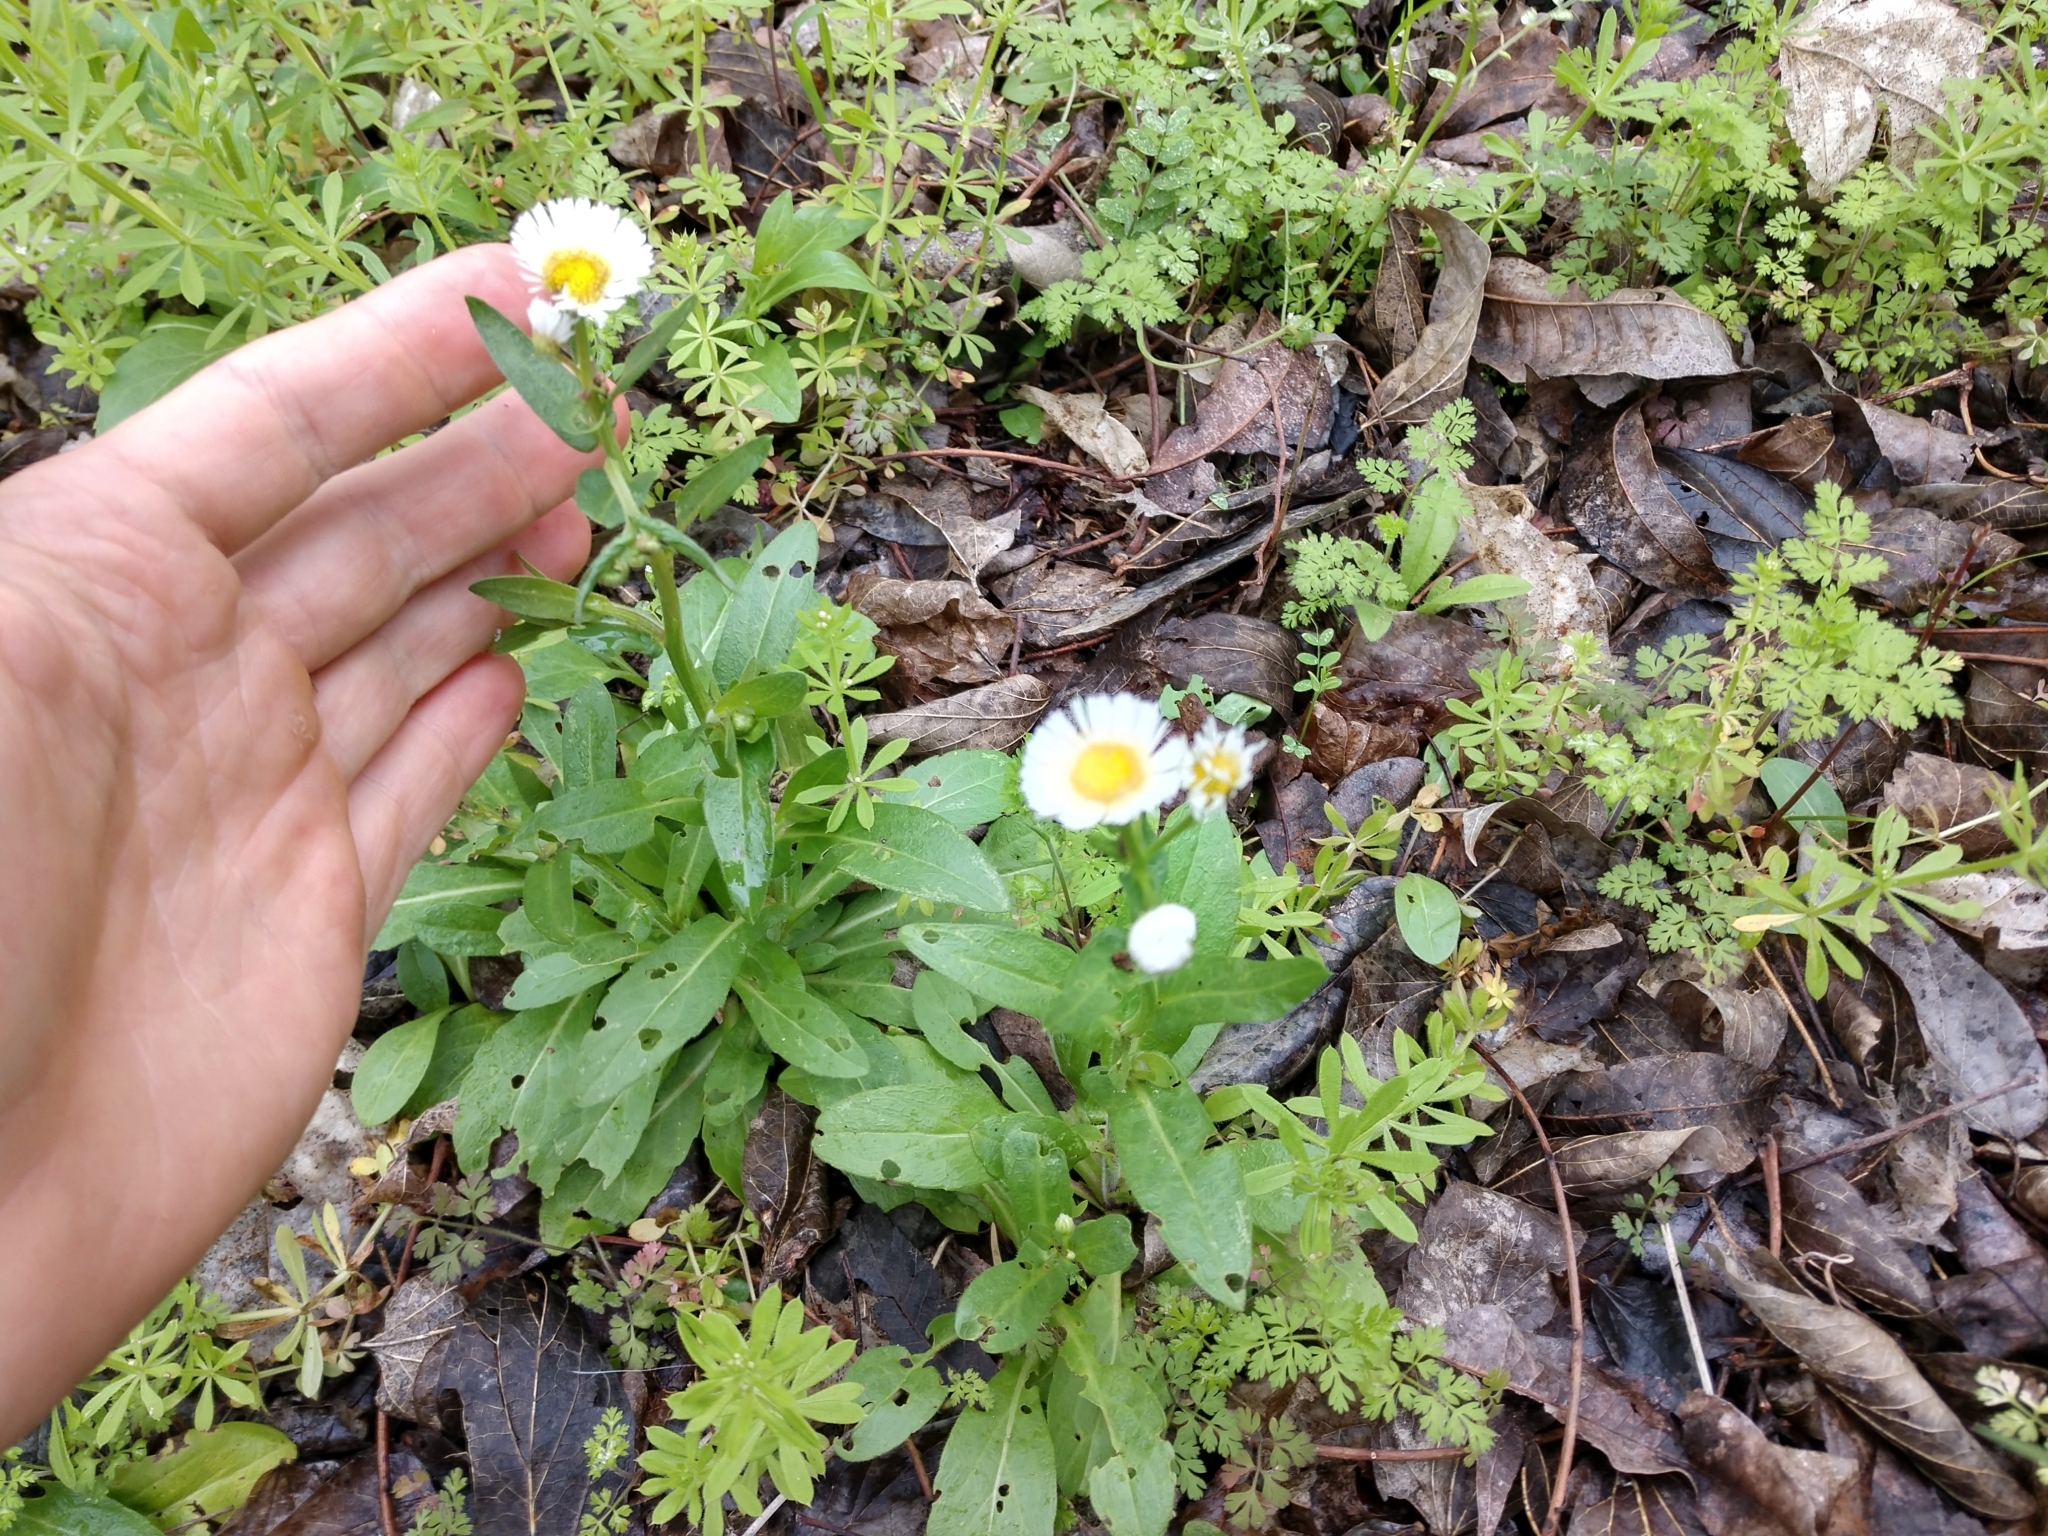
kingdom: Plantae
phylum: Tracheophyta
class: Magnoliopsida
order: Asterales
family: Asteraceae
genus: Erigeron
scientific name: Erigeron philadelphicus
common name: Robin's-plantain
